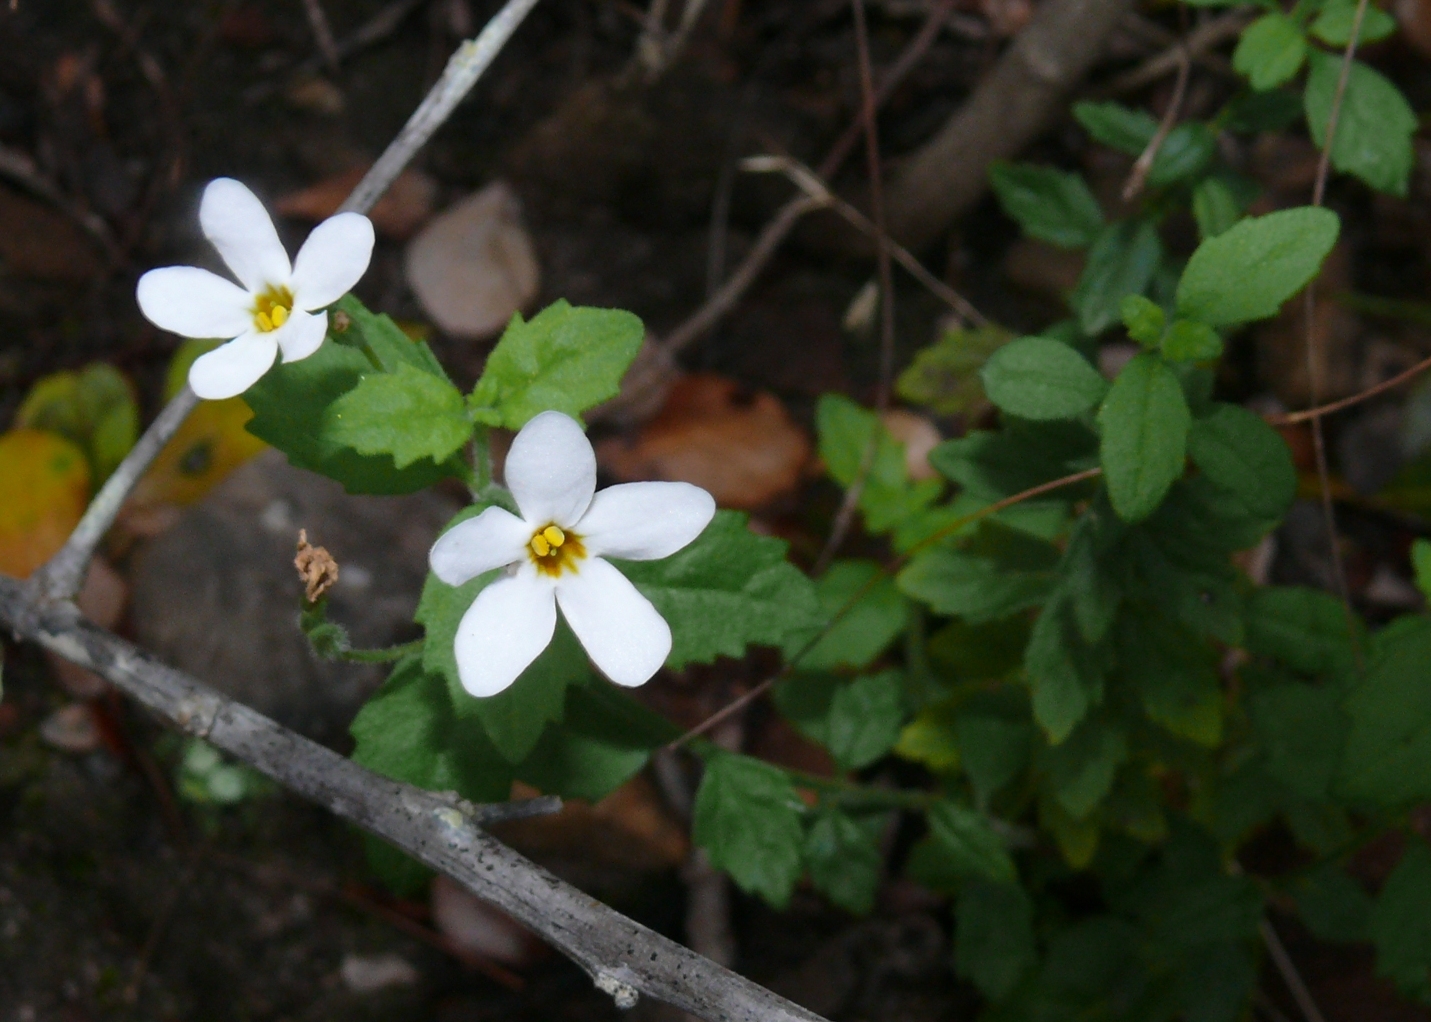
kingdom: Plantae
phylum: Tracheophyta
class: Magnoliopsida
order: Lamiales
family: Scrophulariaceae
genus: Chaenostoma
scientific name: Chaenostoma hispidum
